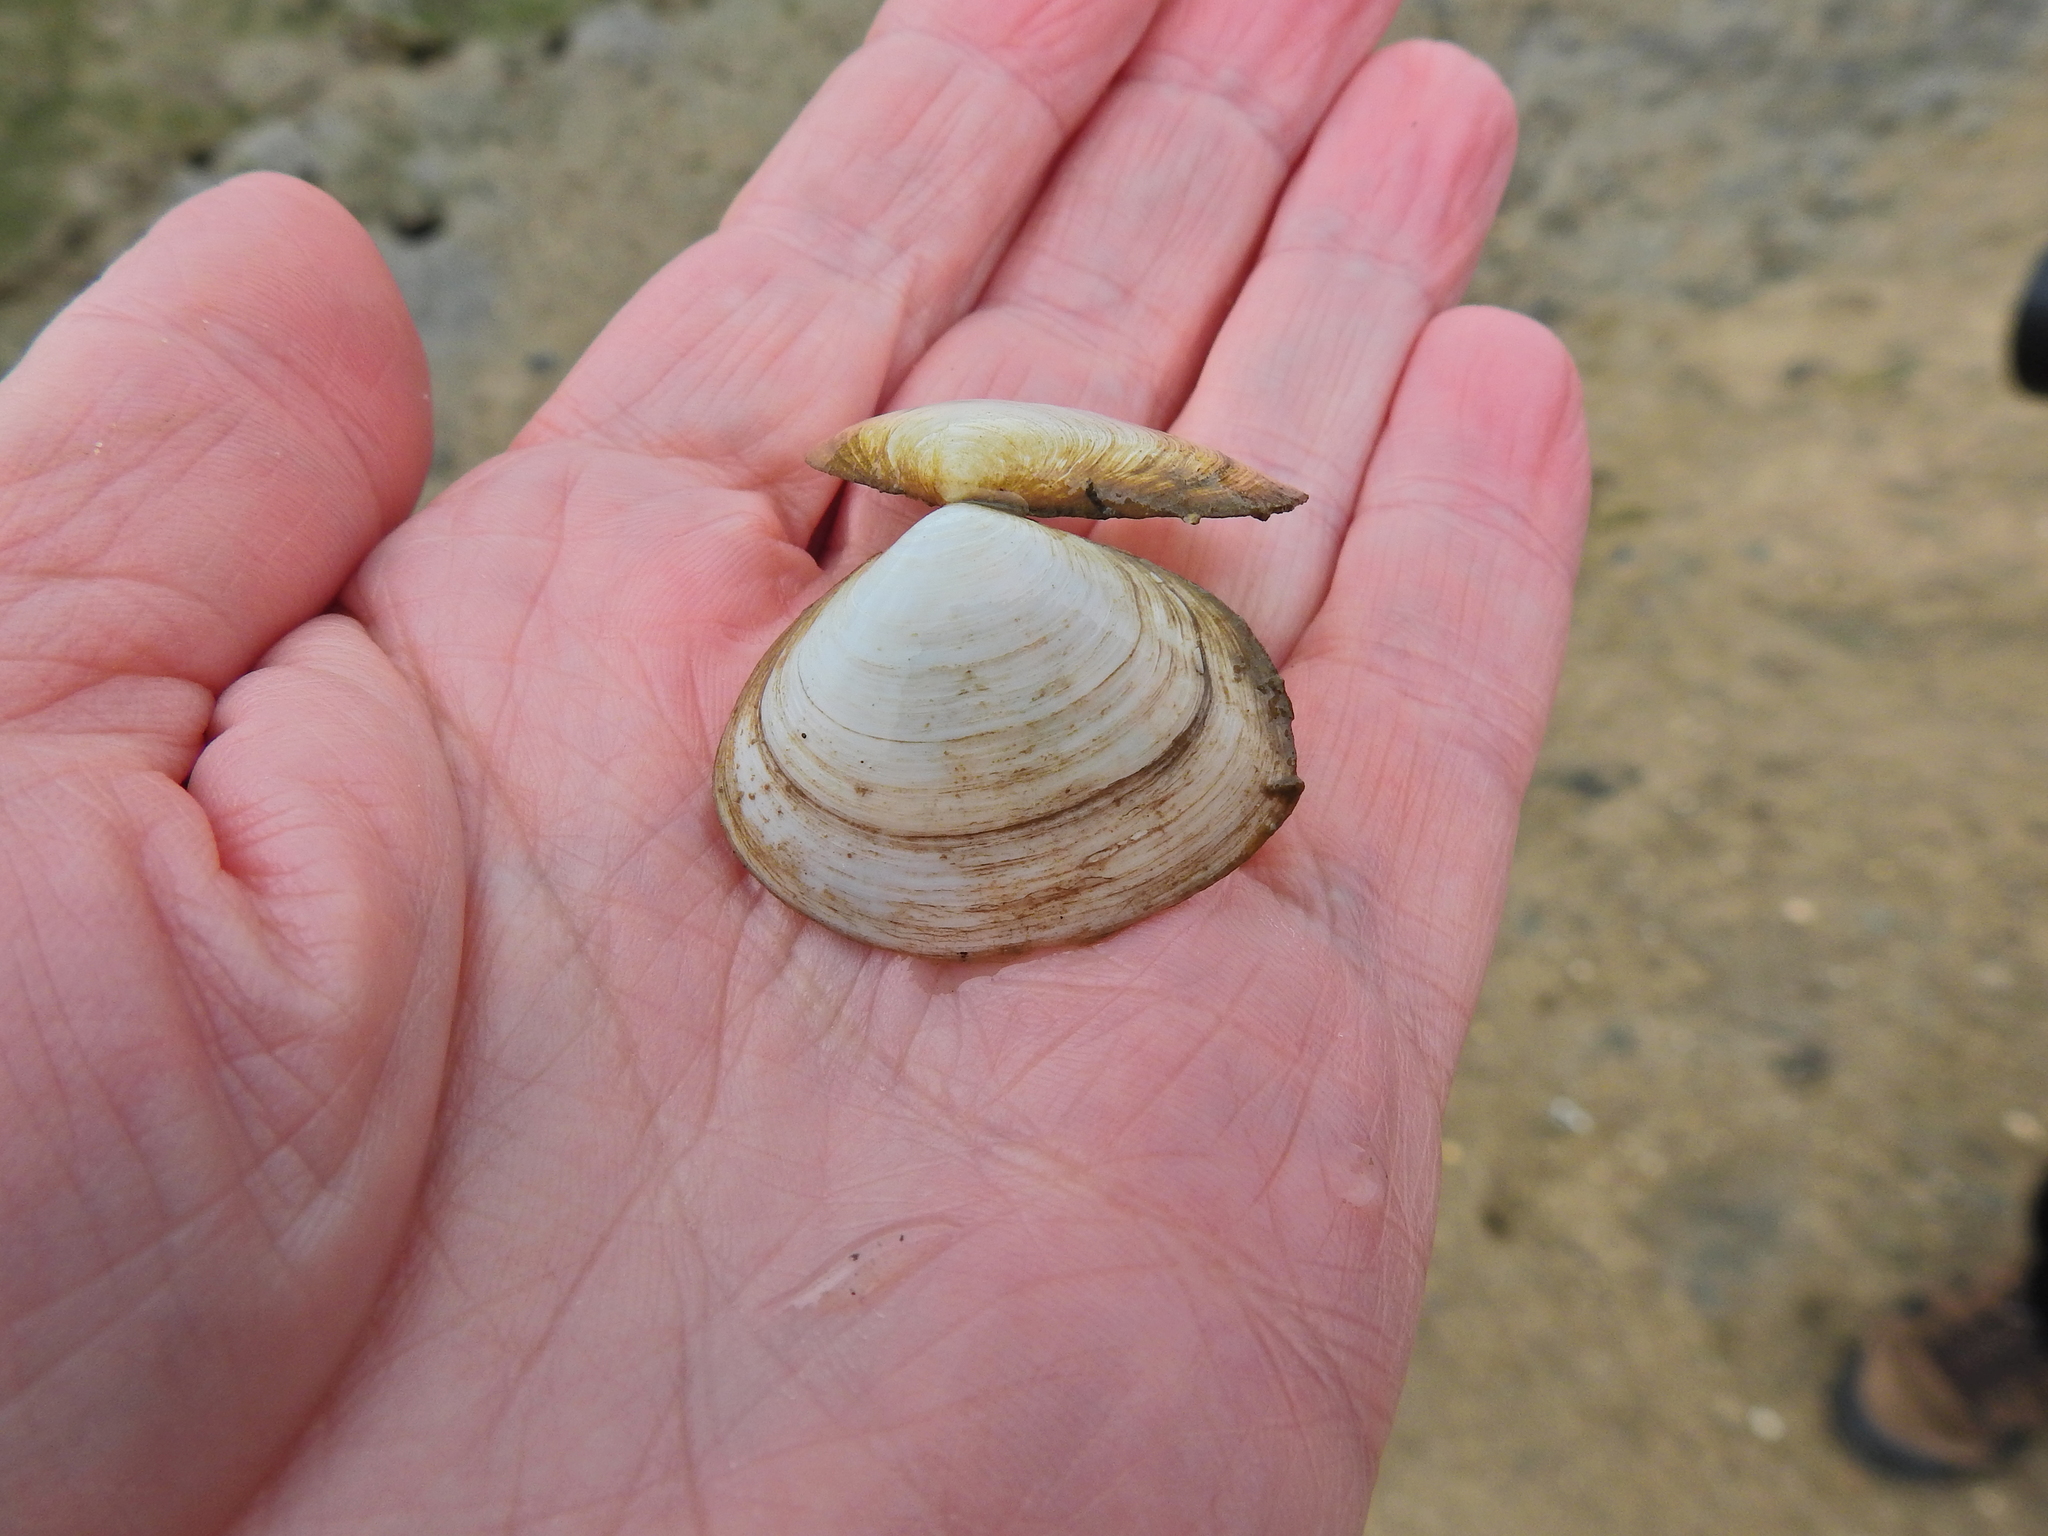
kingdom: Animalia
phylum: Mollusca
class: Bivalvia
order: Cardiida
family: Semelidae
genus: Scrobicularia
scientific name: Scrobicularia plana
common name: Peppery furrow shell
